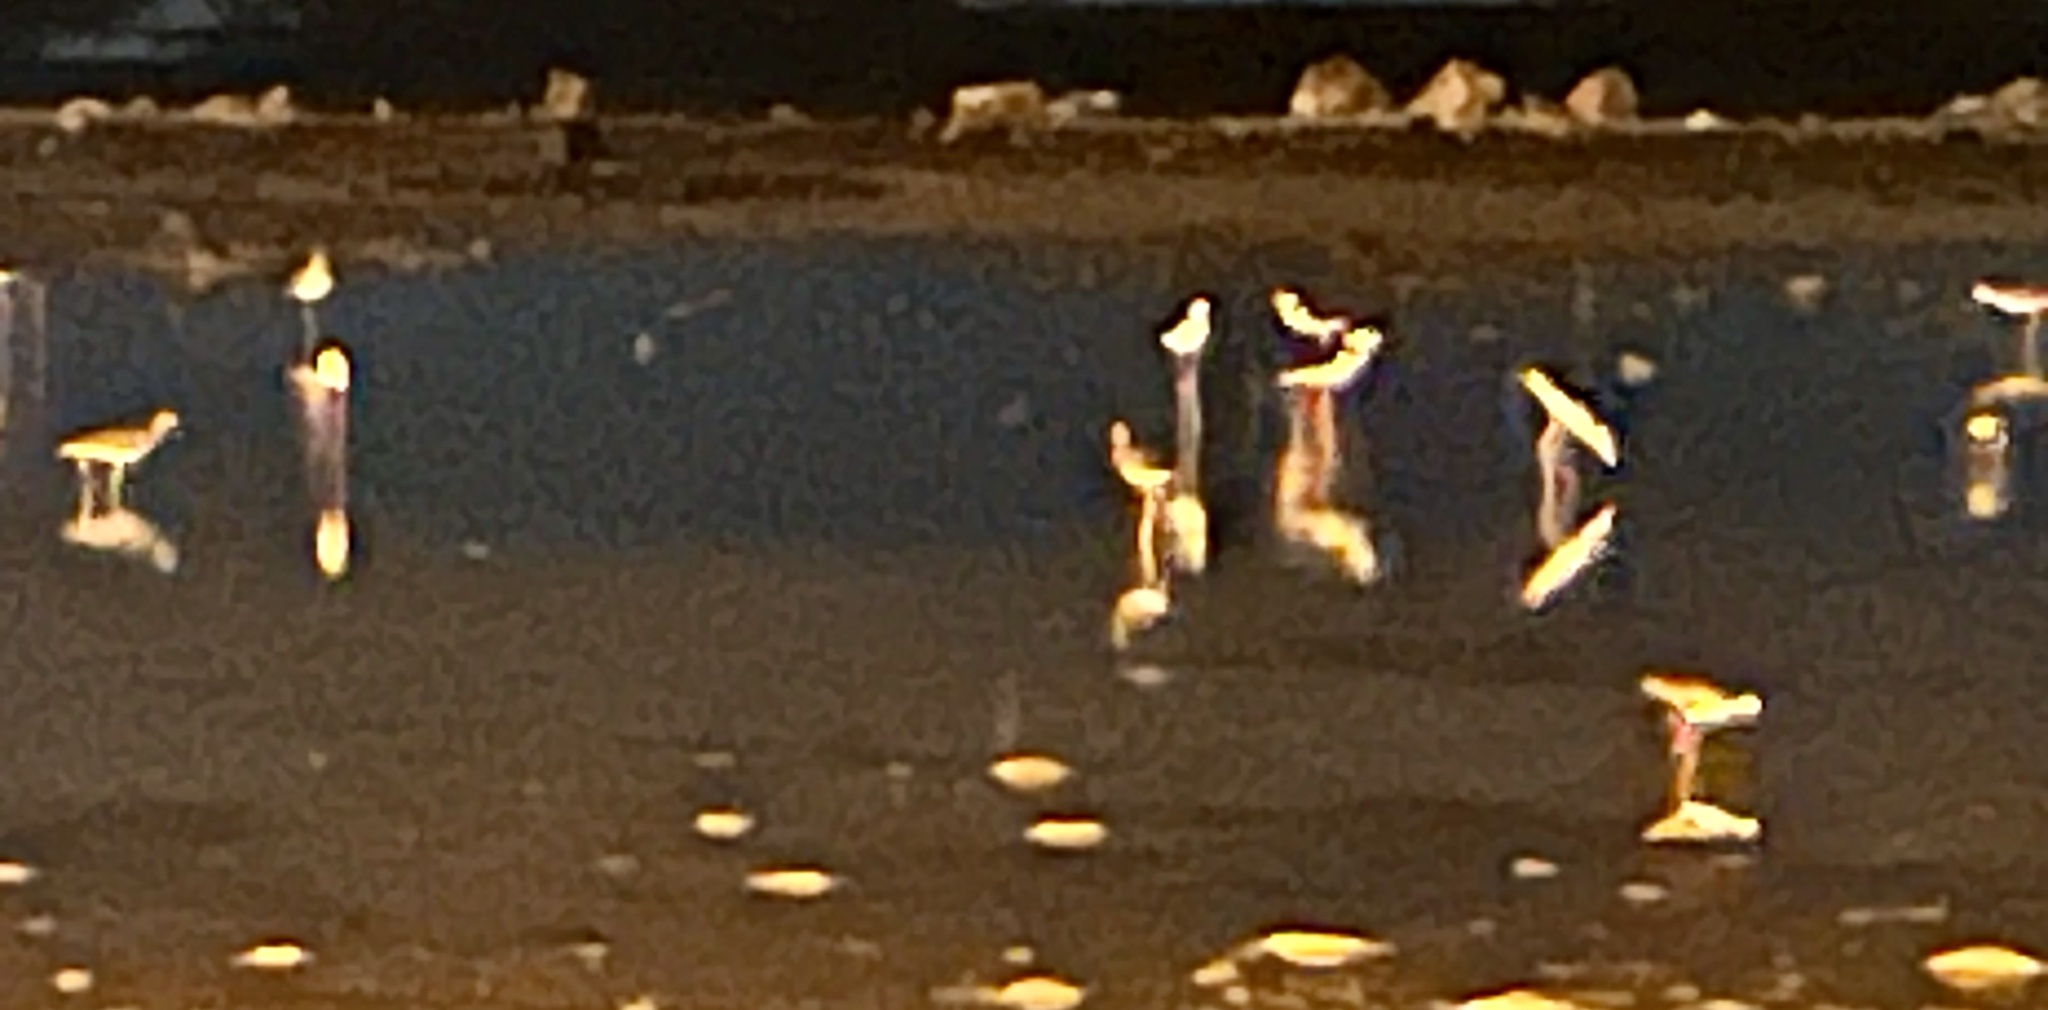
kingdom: Animalia
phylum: Chordata
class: Aves
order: Charadriiformes
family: Recurvirostridae
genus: Himantopus
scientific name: Himantopus mexicanus
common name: Black-necked stilt
